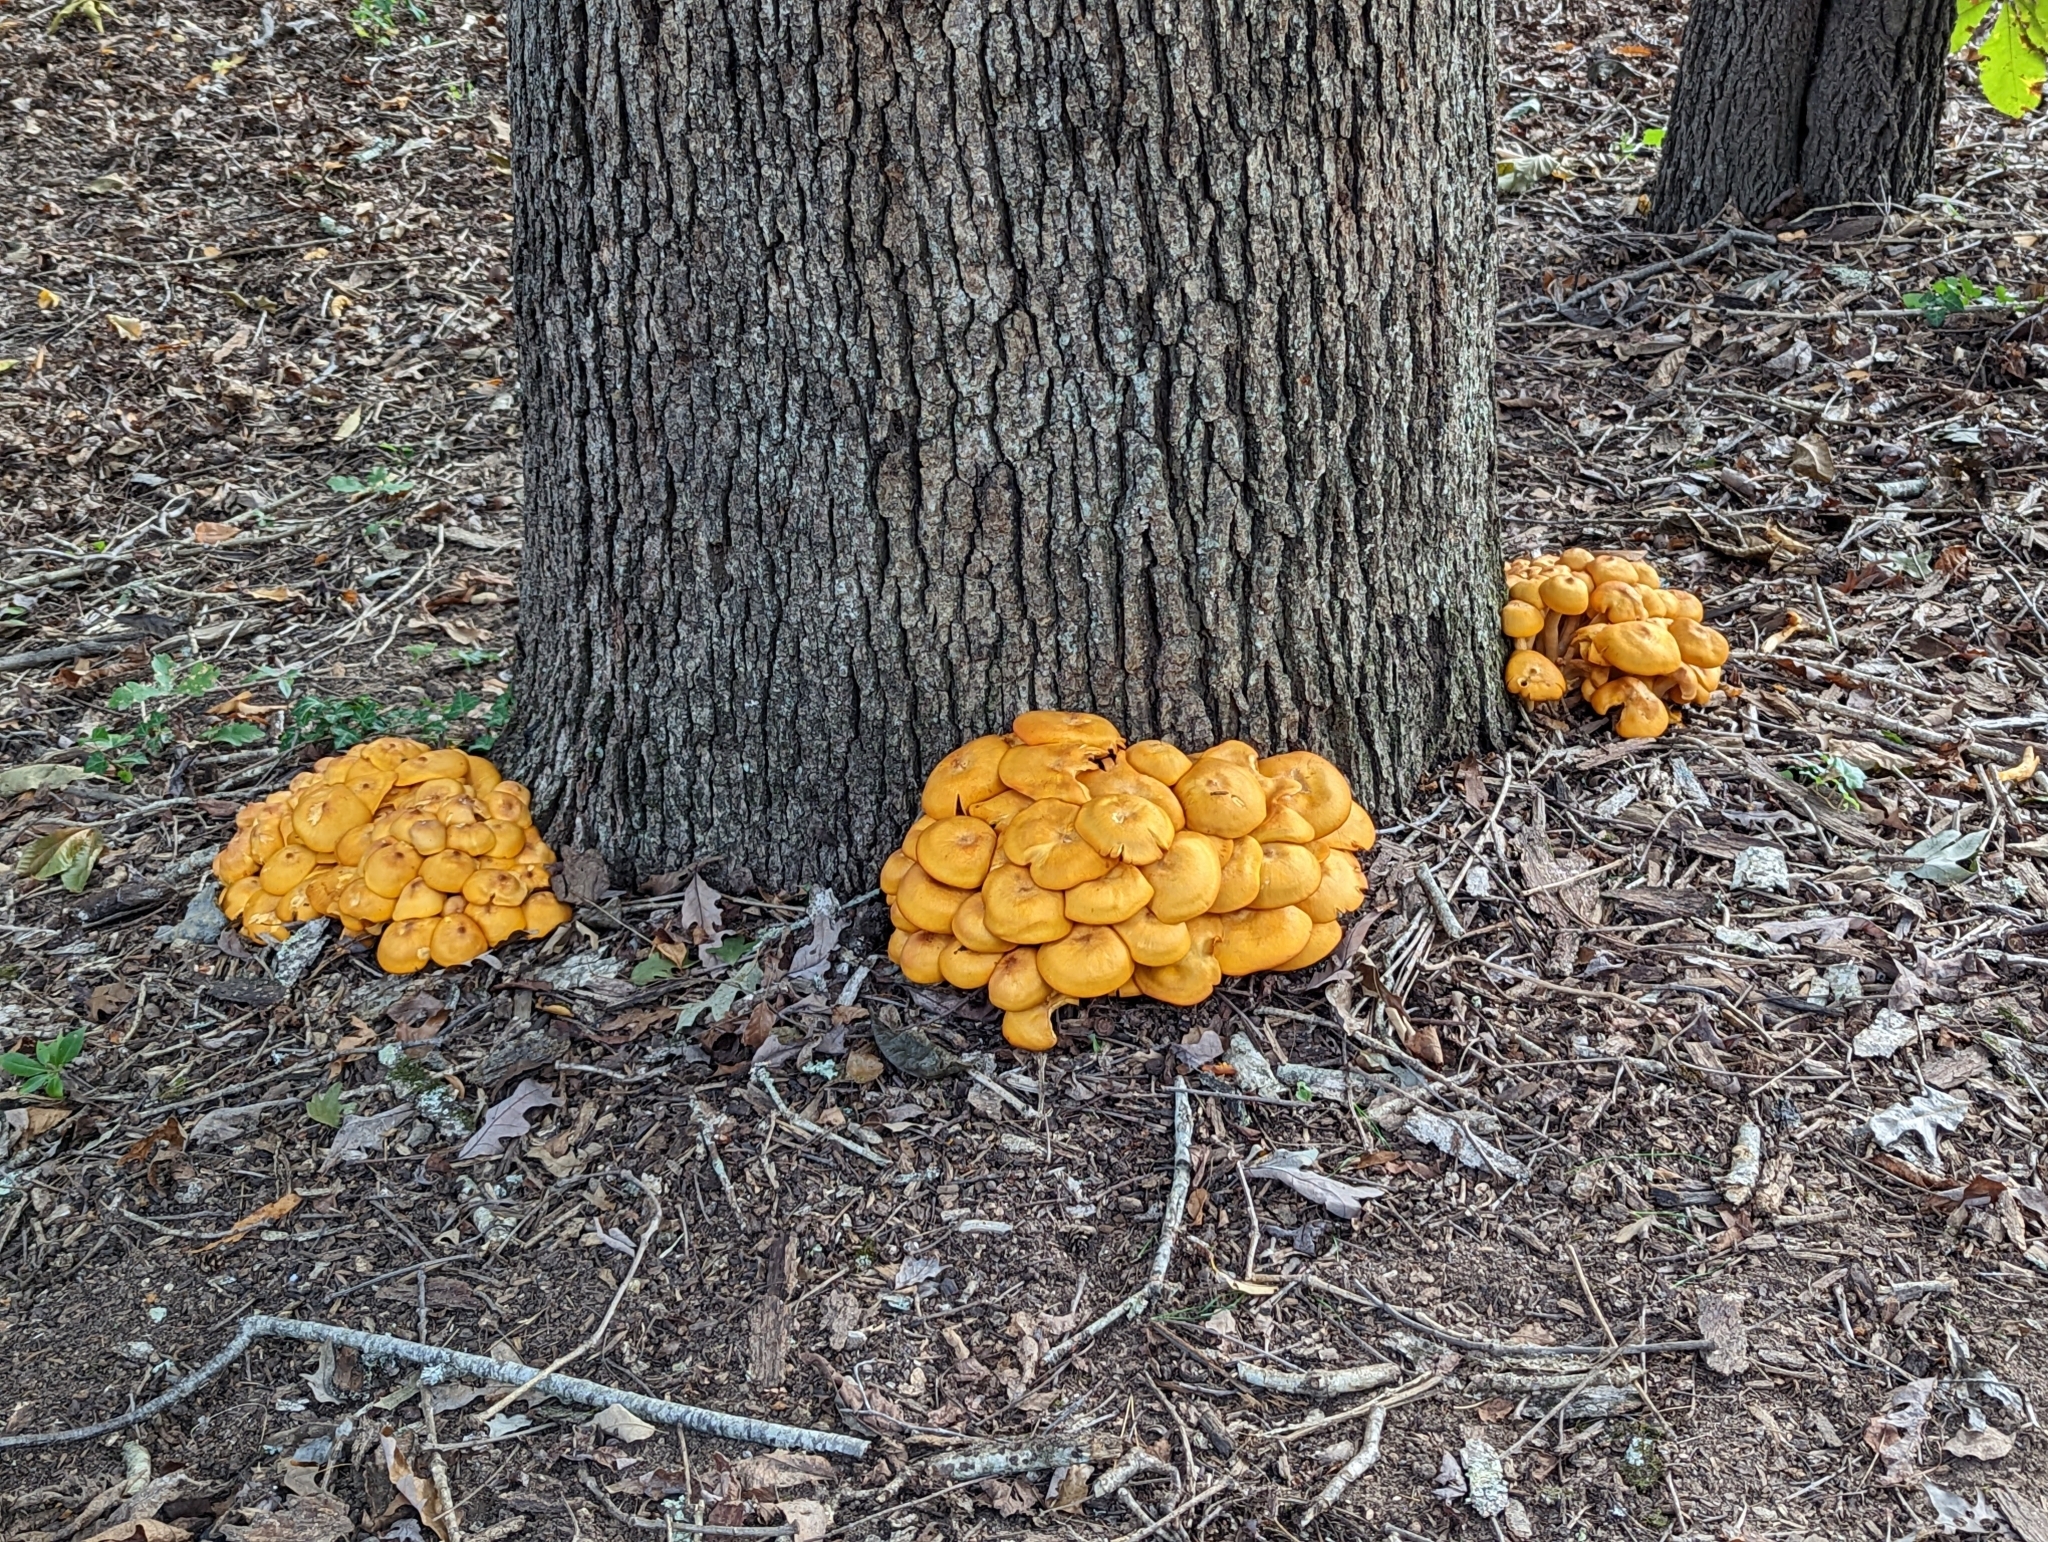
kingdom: Fungi
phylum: Basidiomycota
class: Agaricomycetes
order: Agaricales
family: Omphalotaceae
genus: Omphalotus
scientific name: Omphalotus illudens
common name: Jack o lantern
